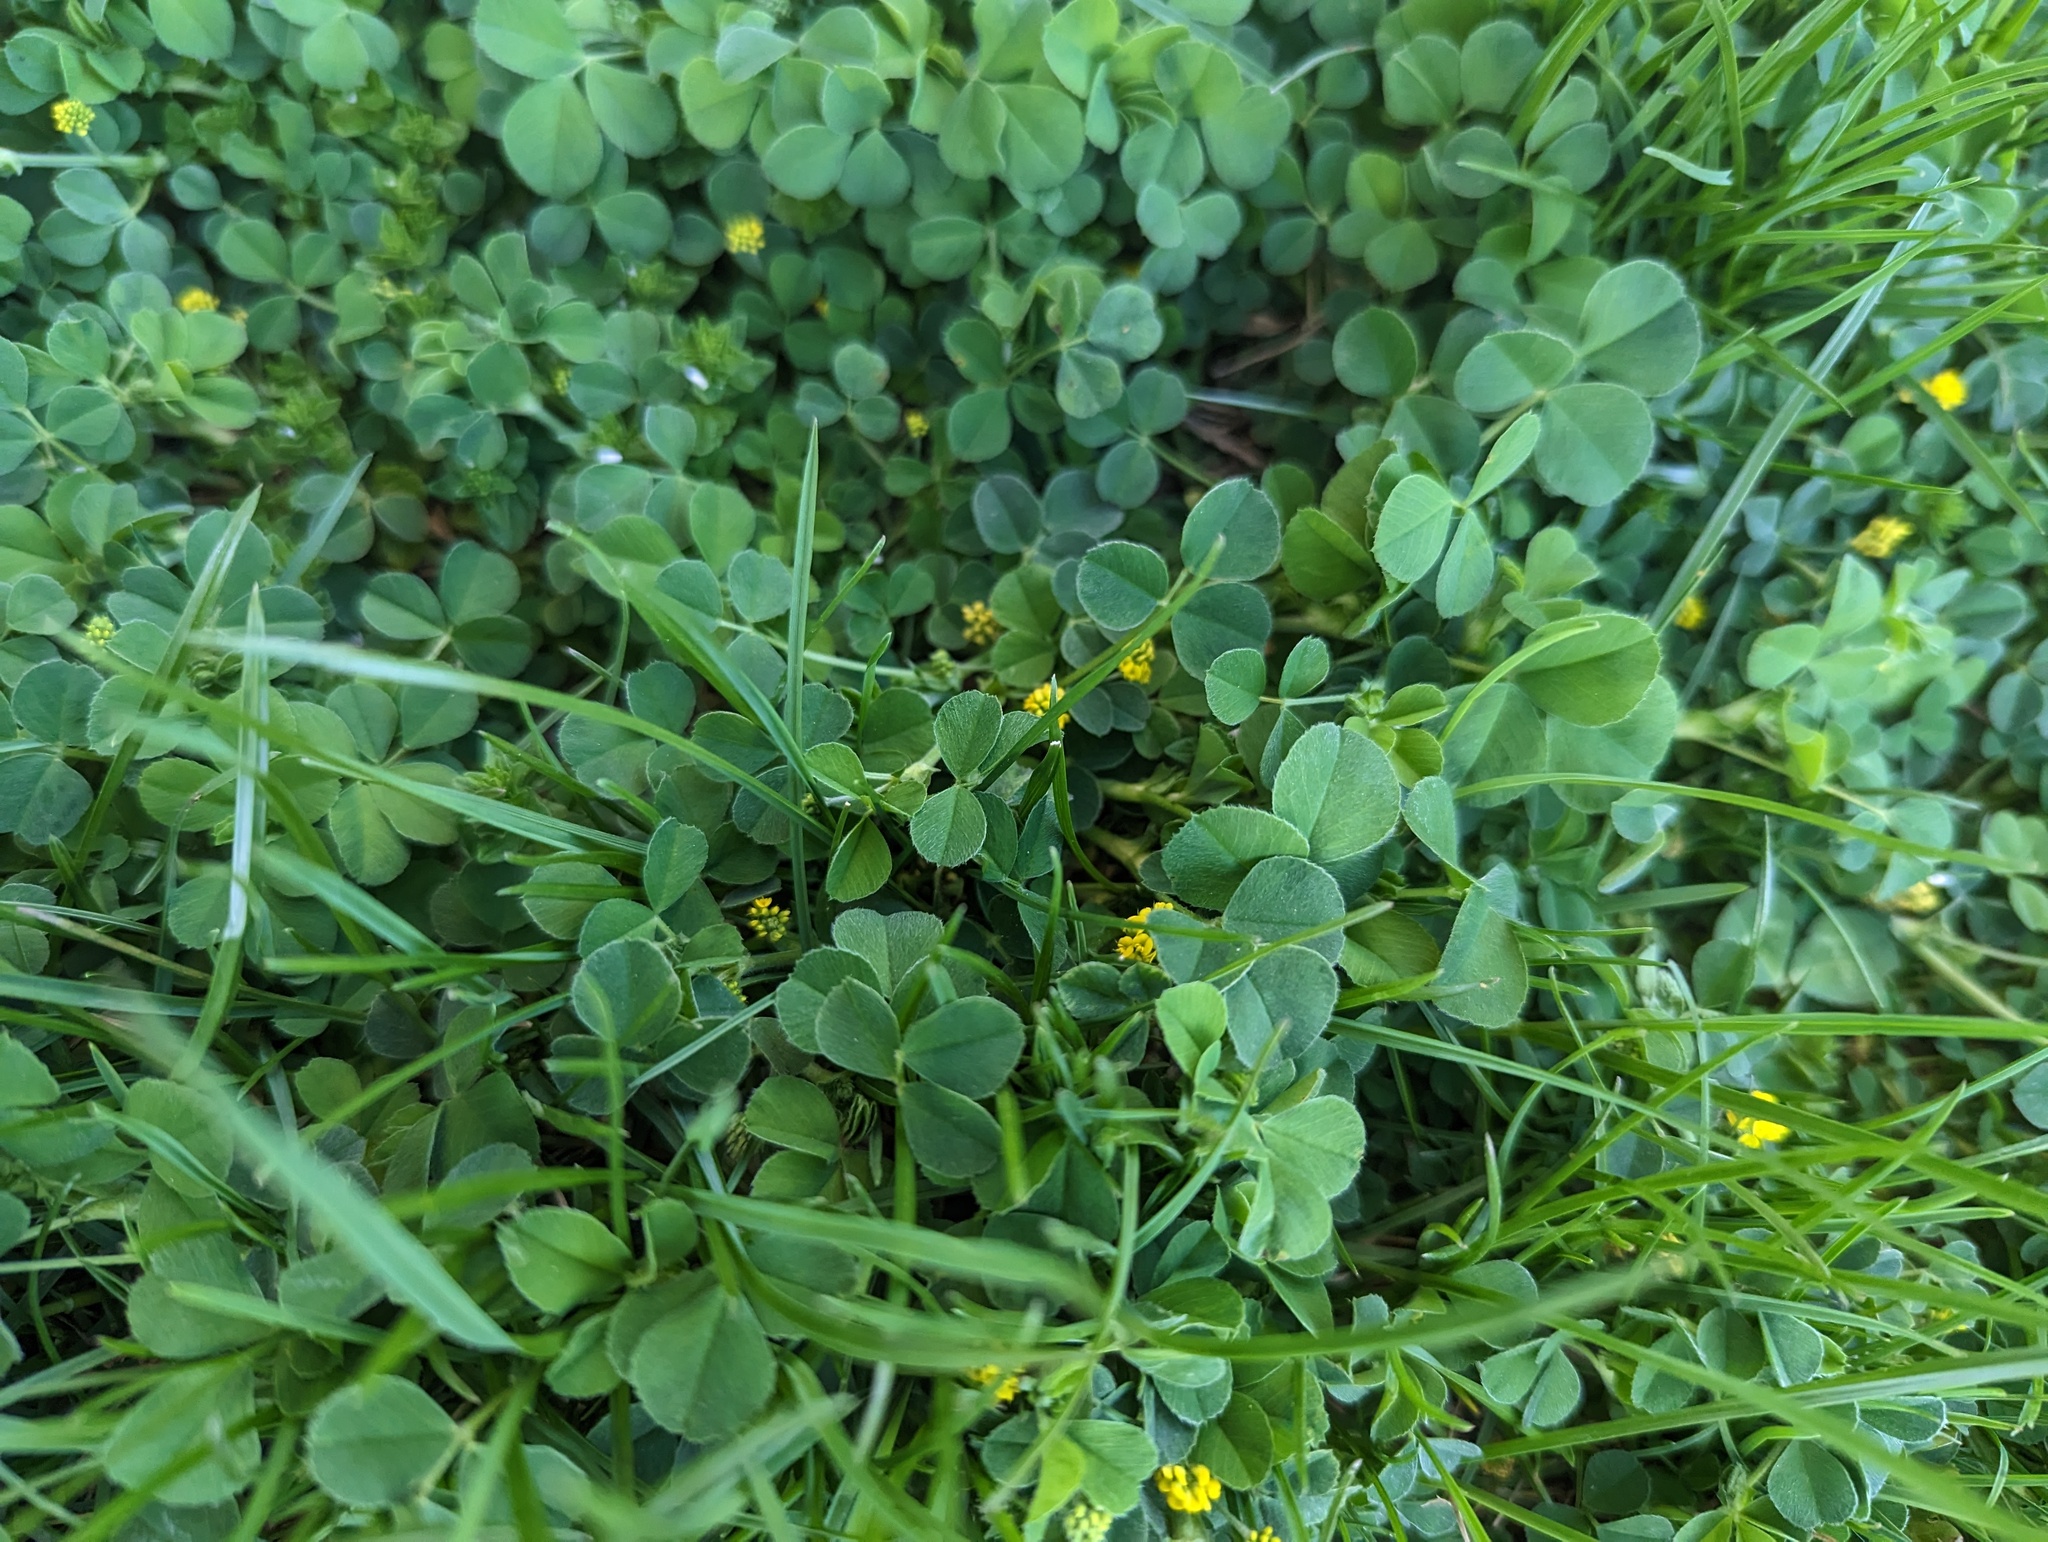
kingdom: Plantae
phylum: Tracheophyta
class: Magnoliopsida
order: Fabales
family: Fabaceae
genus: Medicago
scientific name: Medicago lupulina
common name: Black medick
